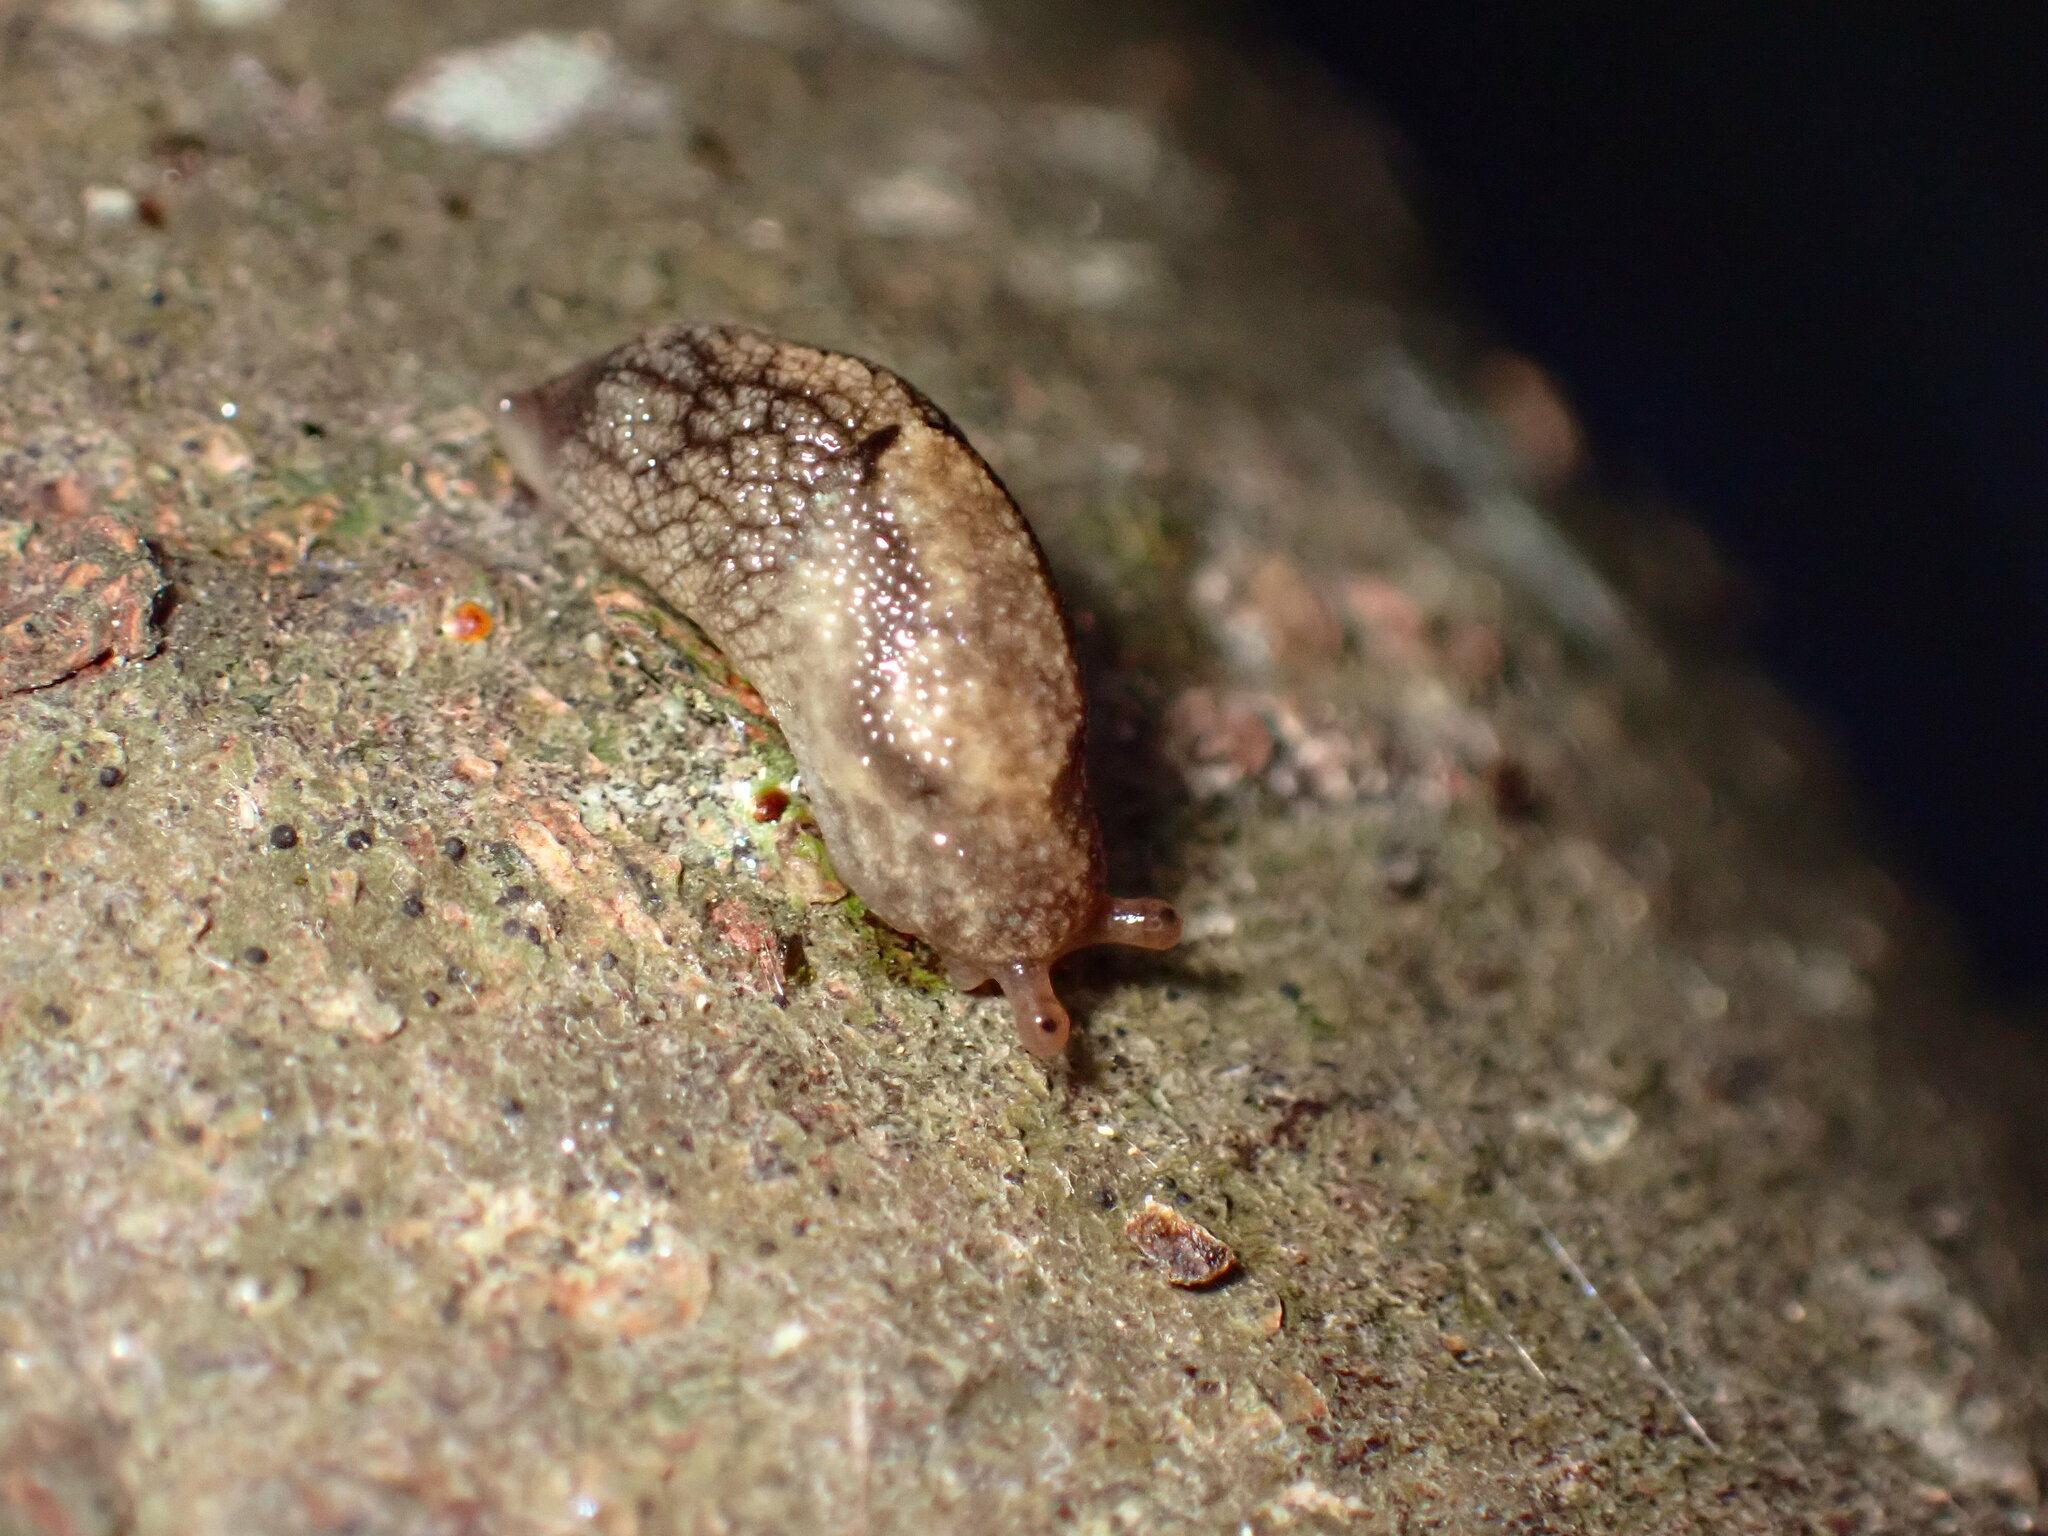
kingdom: Animalia
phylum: Mollusca
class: Gastropoda
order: Stylommatophora
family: Ariolimacidae
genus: Prophysaon
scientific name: Prophysaon andersonii
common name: Reticulate taildropper
